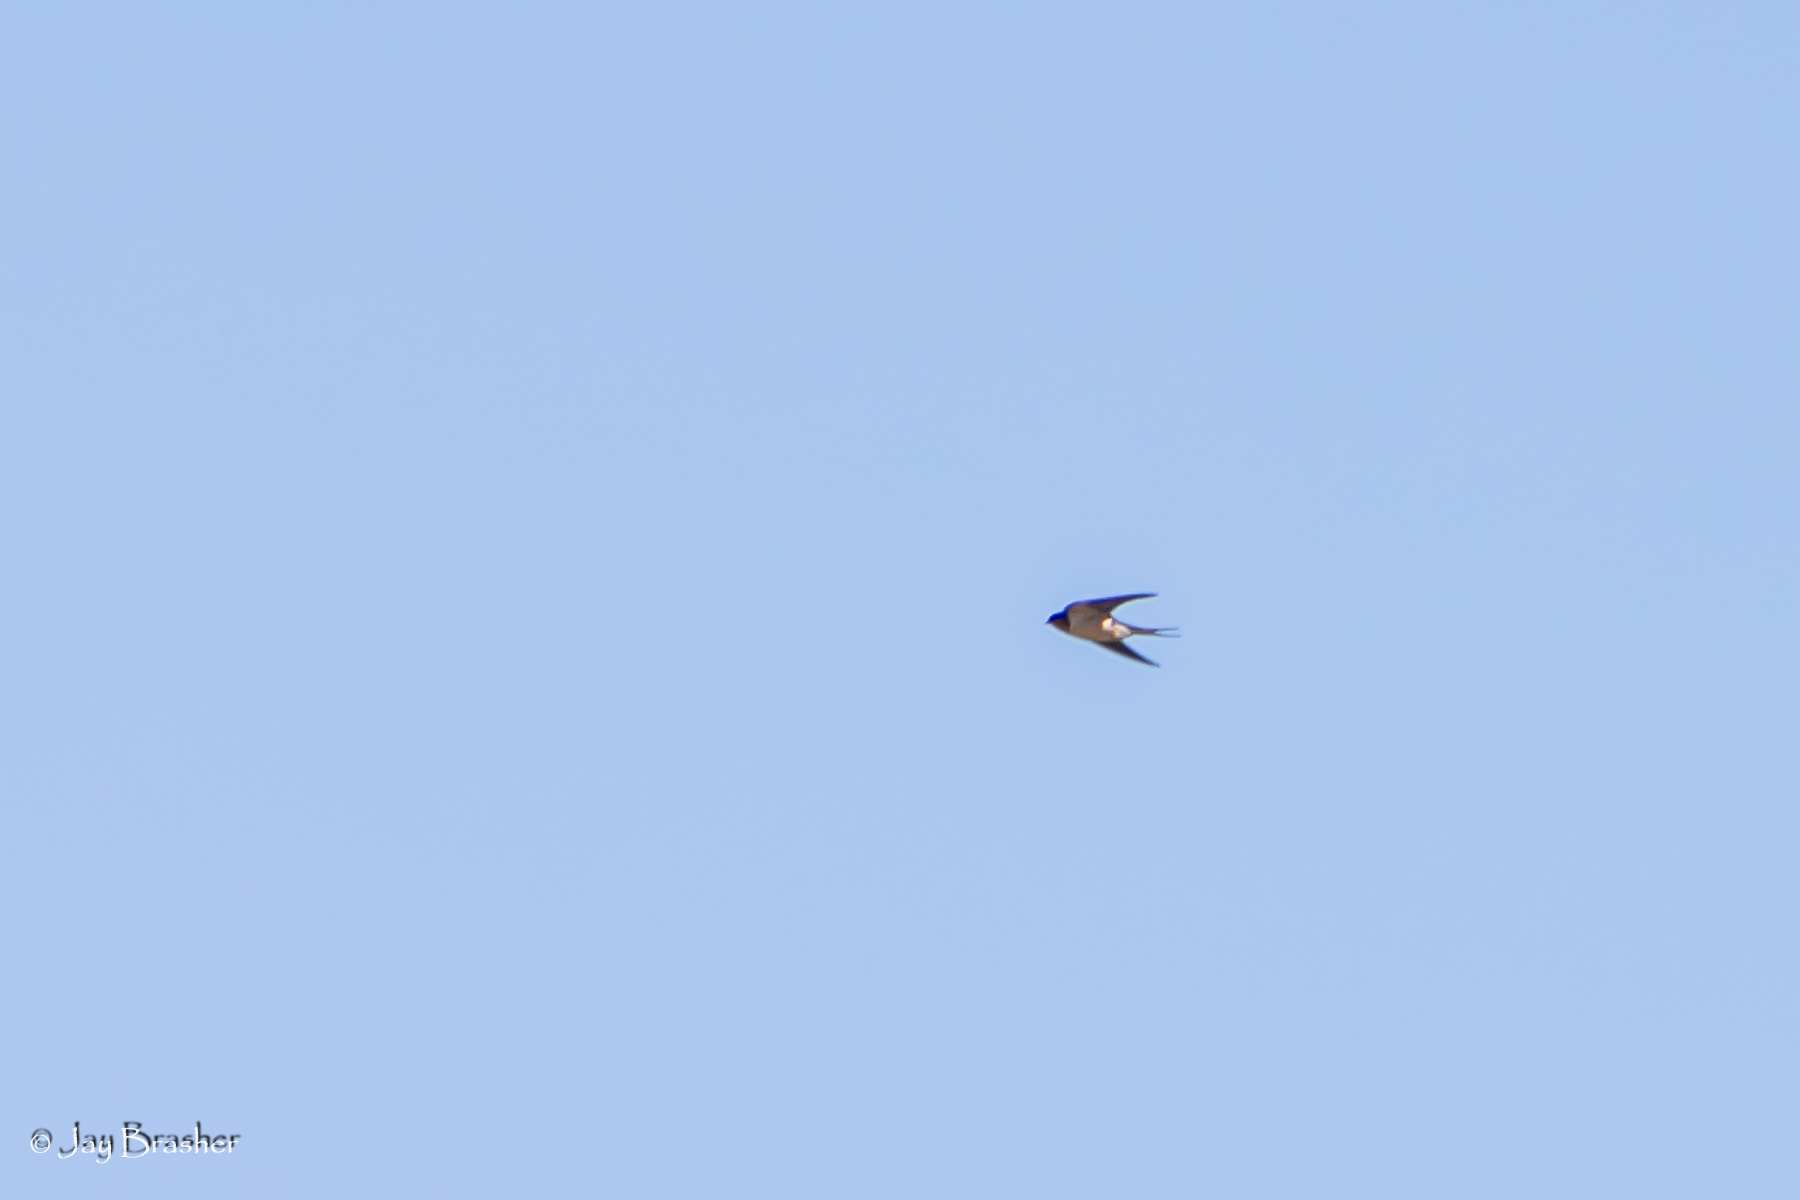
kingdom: Animalia
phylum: Chordata
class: Aves
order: Passeriformes
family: Hirundinidae
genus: Hirundo
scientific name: Hirundo rustica
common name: Barn swallow
